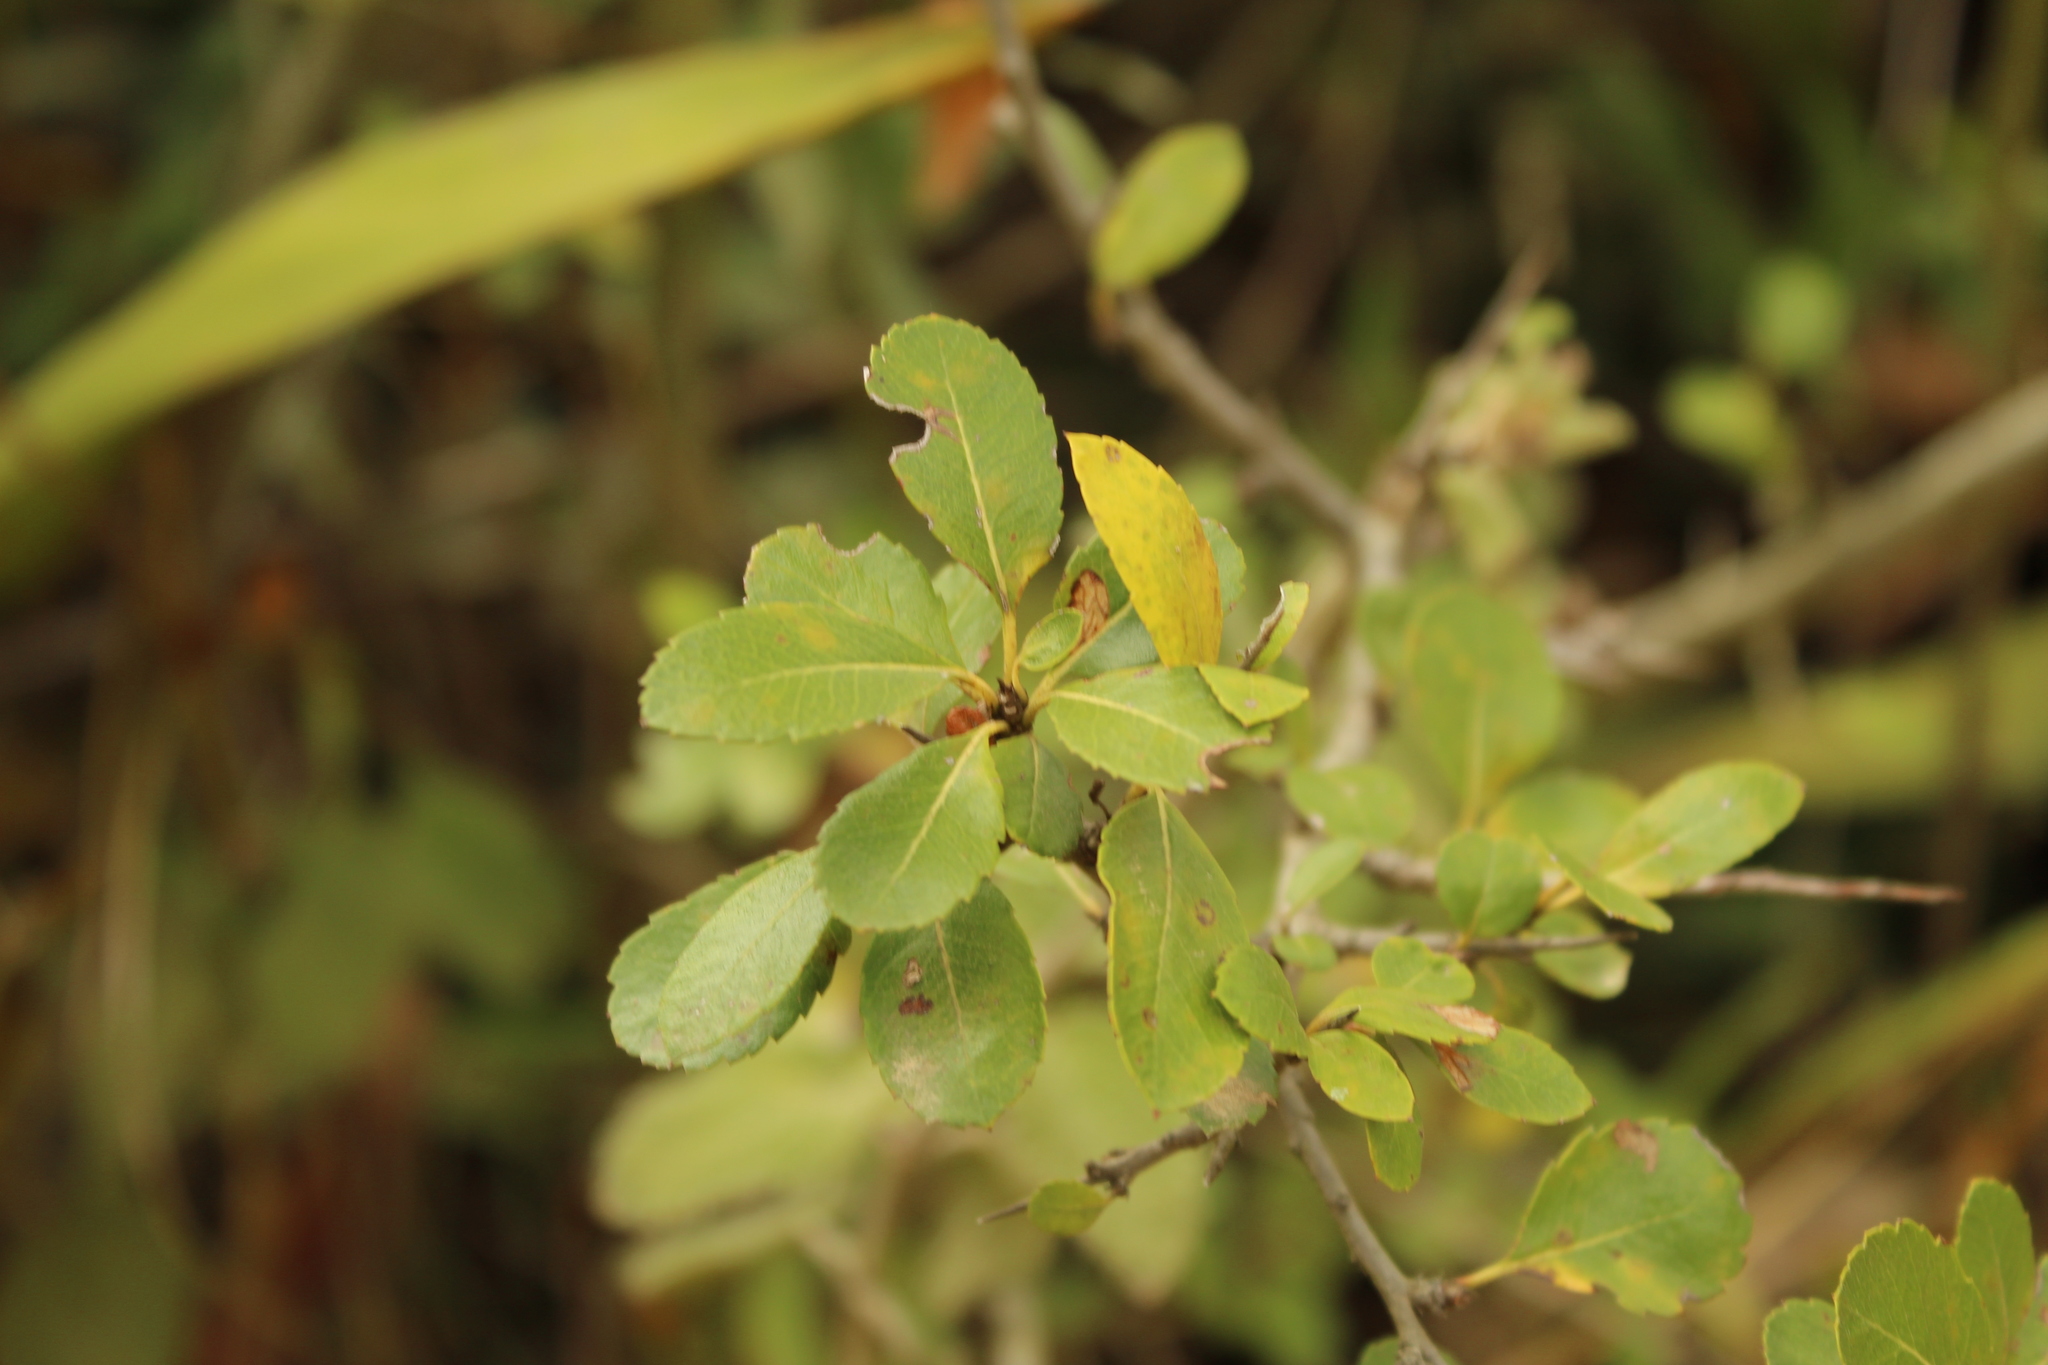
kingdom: Plantae
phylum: Tracheophyta
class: Magnoliopsida
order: Rosales
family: Rosaceae
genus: Hesperomeles
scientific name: Hesperomeles obtusifolia
